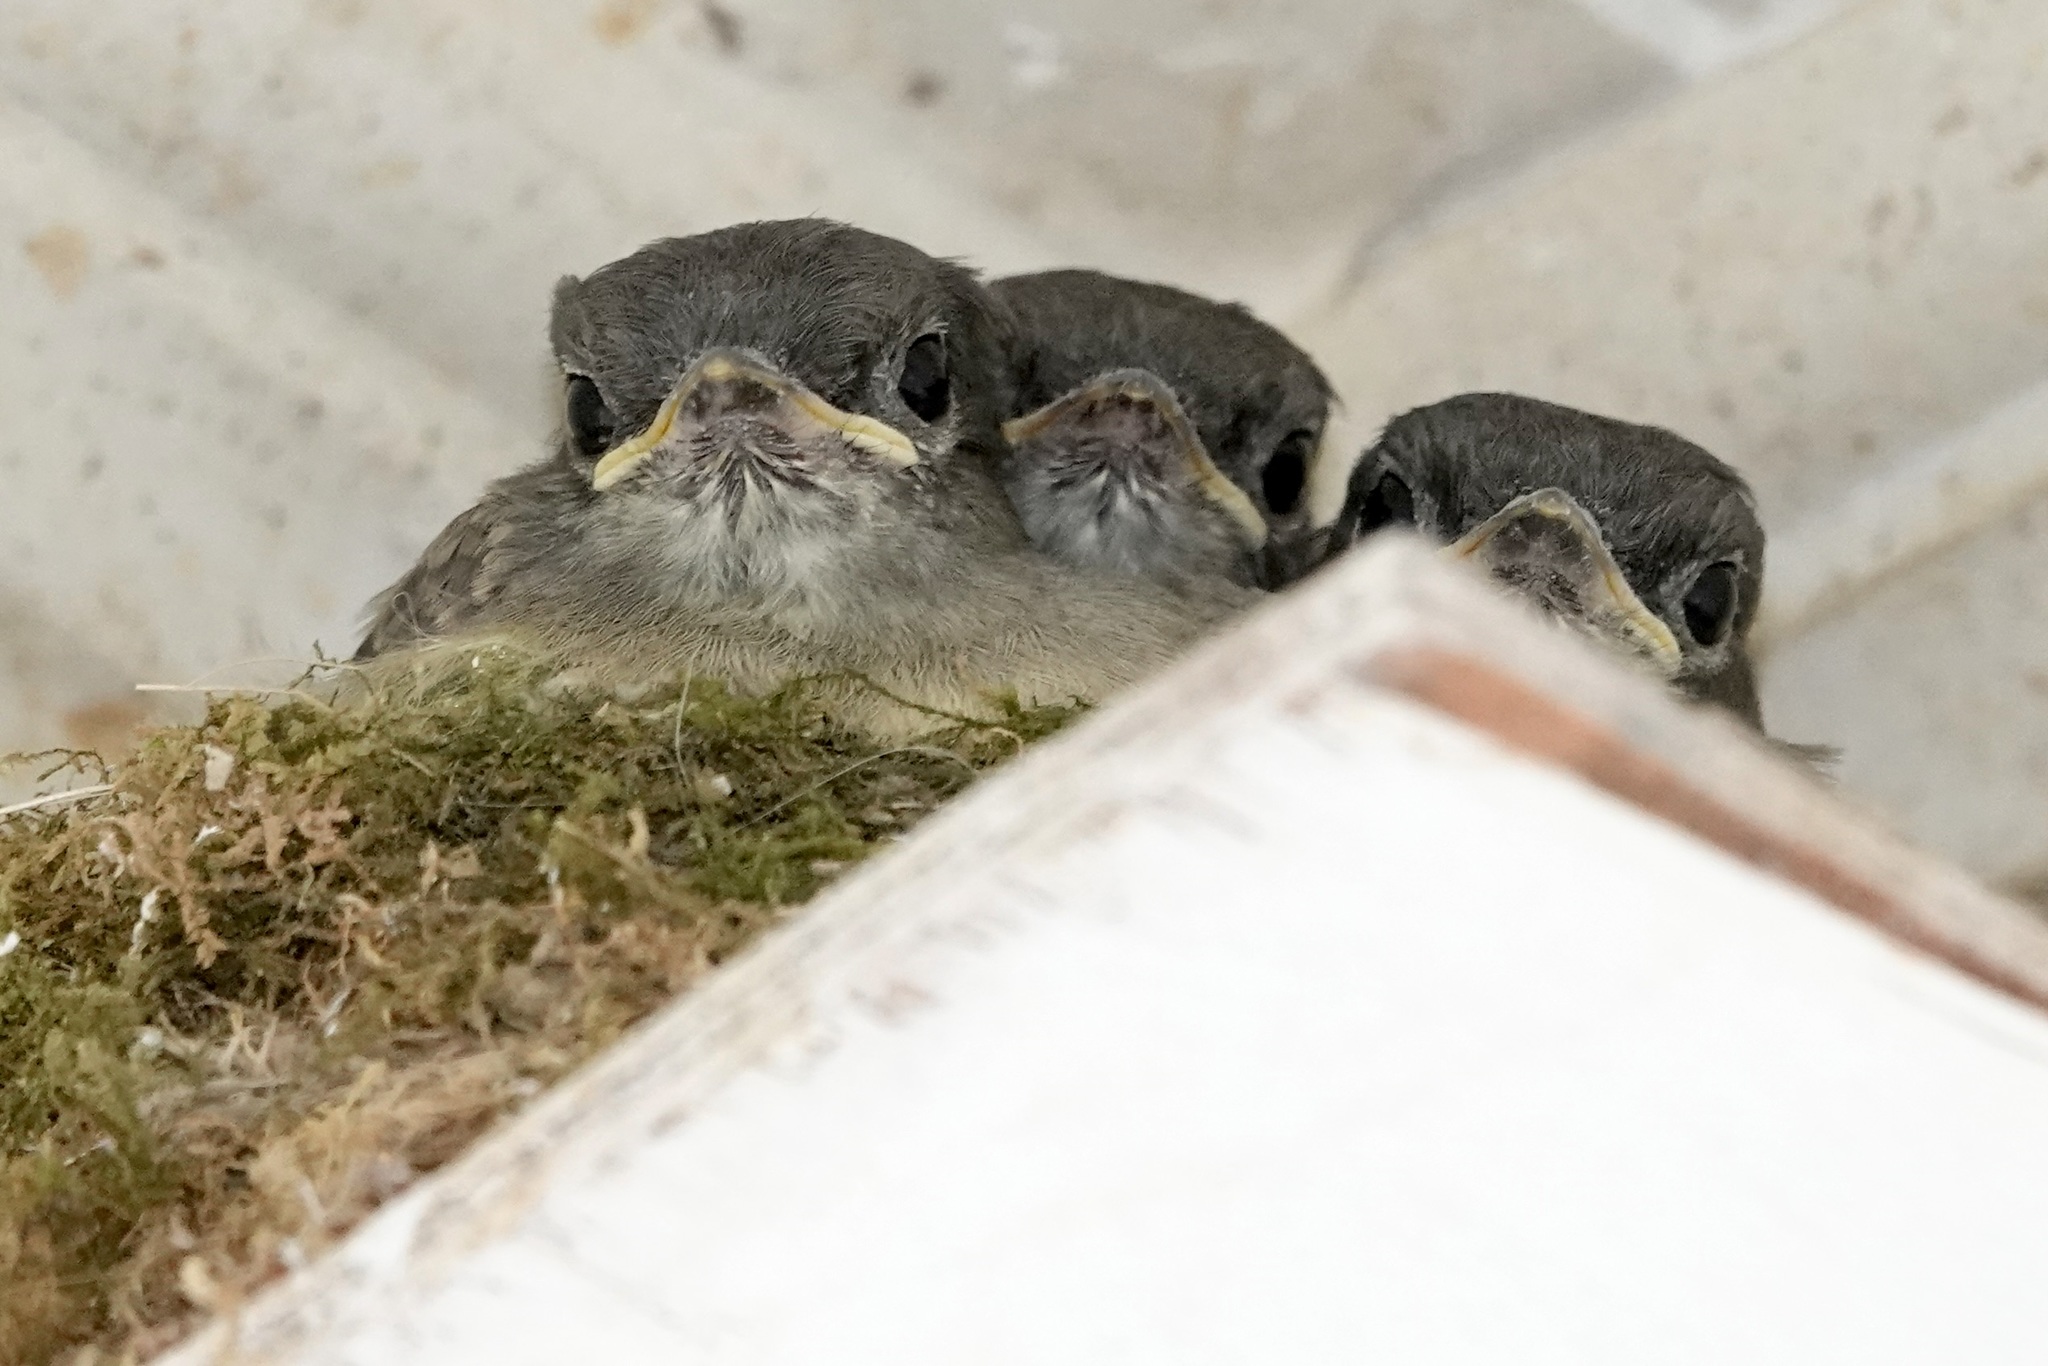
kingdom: Animalia
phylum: Chordata
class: Aves
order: Passeriformes
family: Tyrannidae
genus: Sayornis
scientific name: Sayornis phoebe
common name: Eastern phoebe
